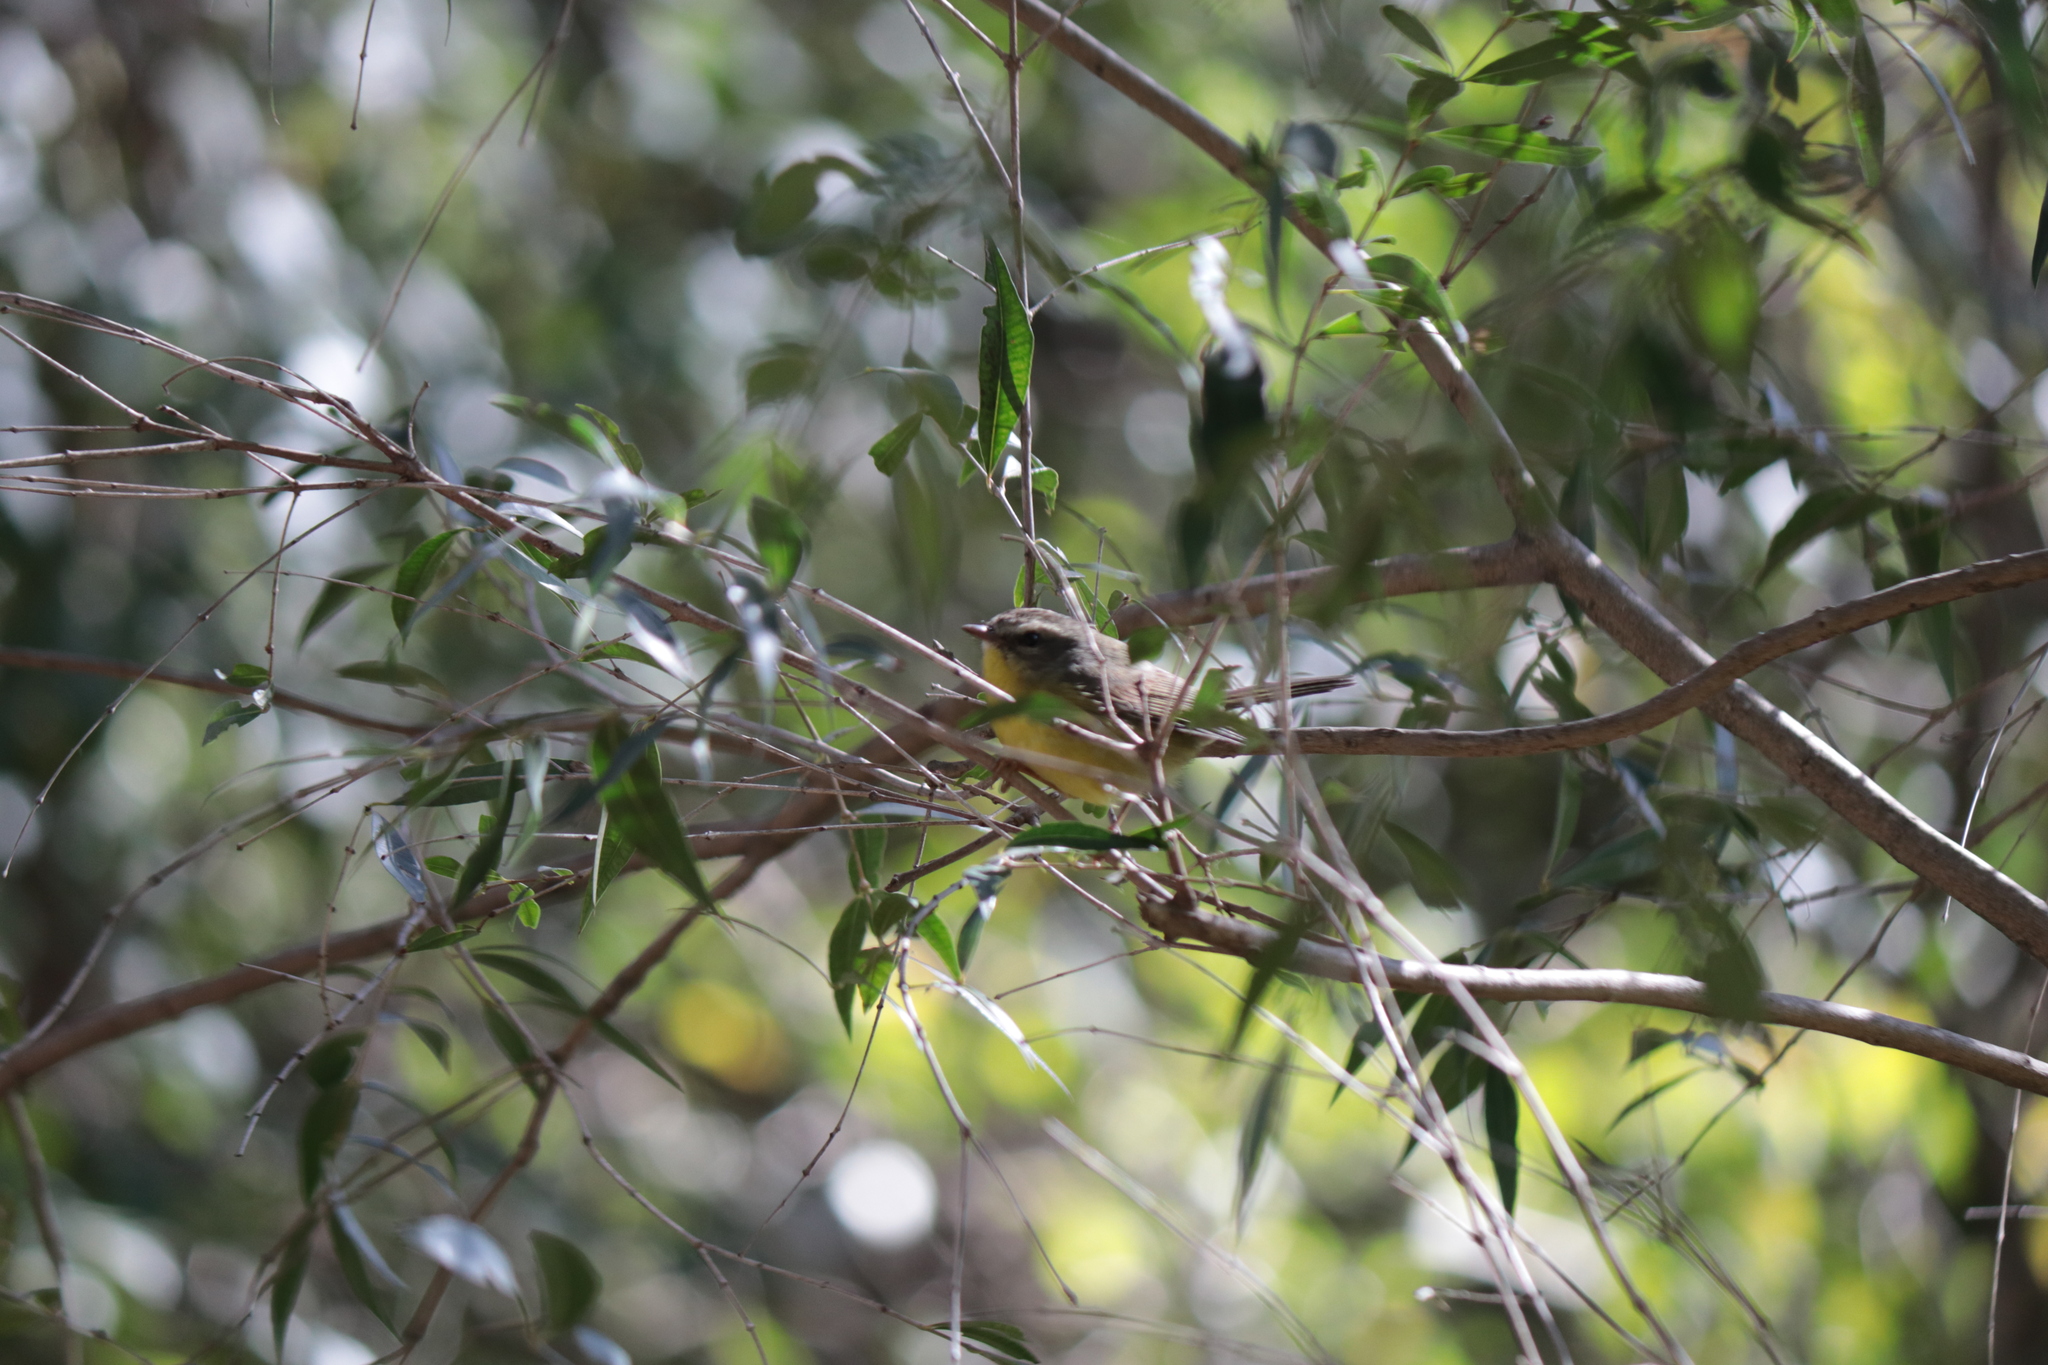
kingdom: Animalia
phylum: Chordata
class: Aves
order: Passeriformes
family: Parulidae
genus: Basileuterus
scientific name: Basileuterus culicivorus
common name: Golden-crowned warbler
